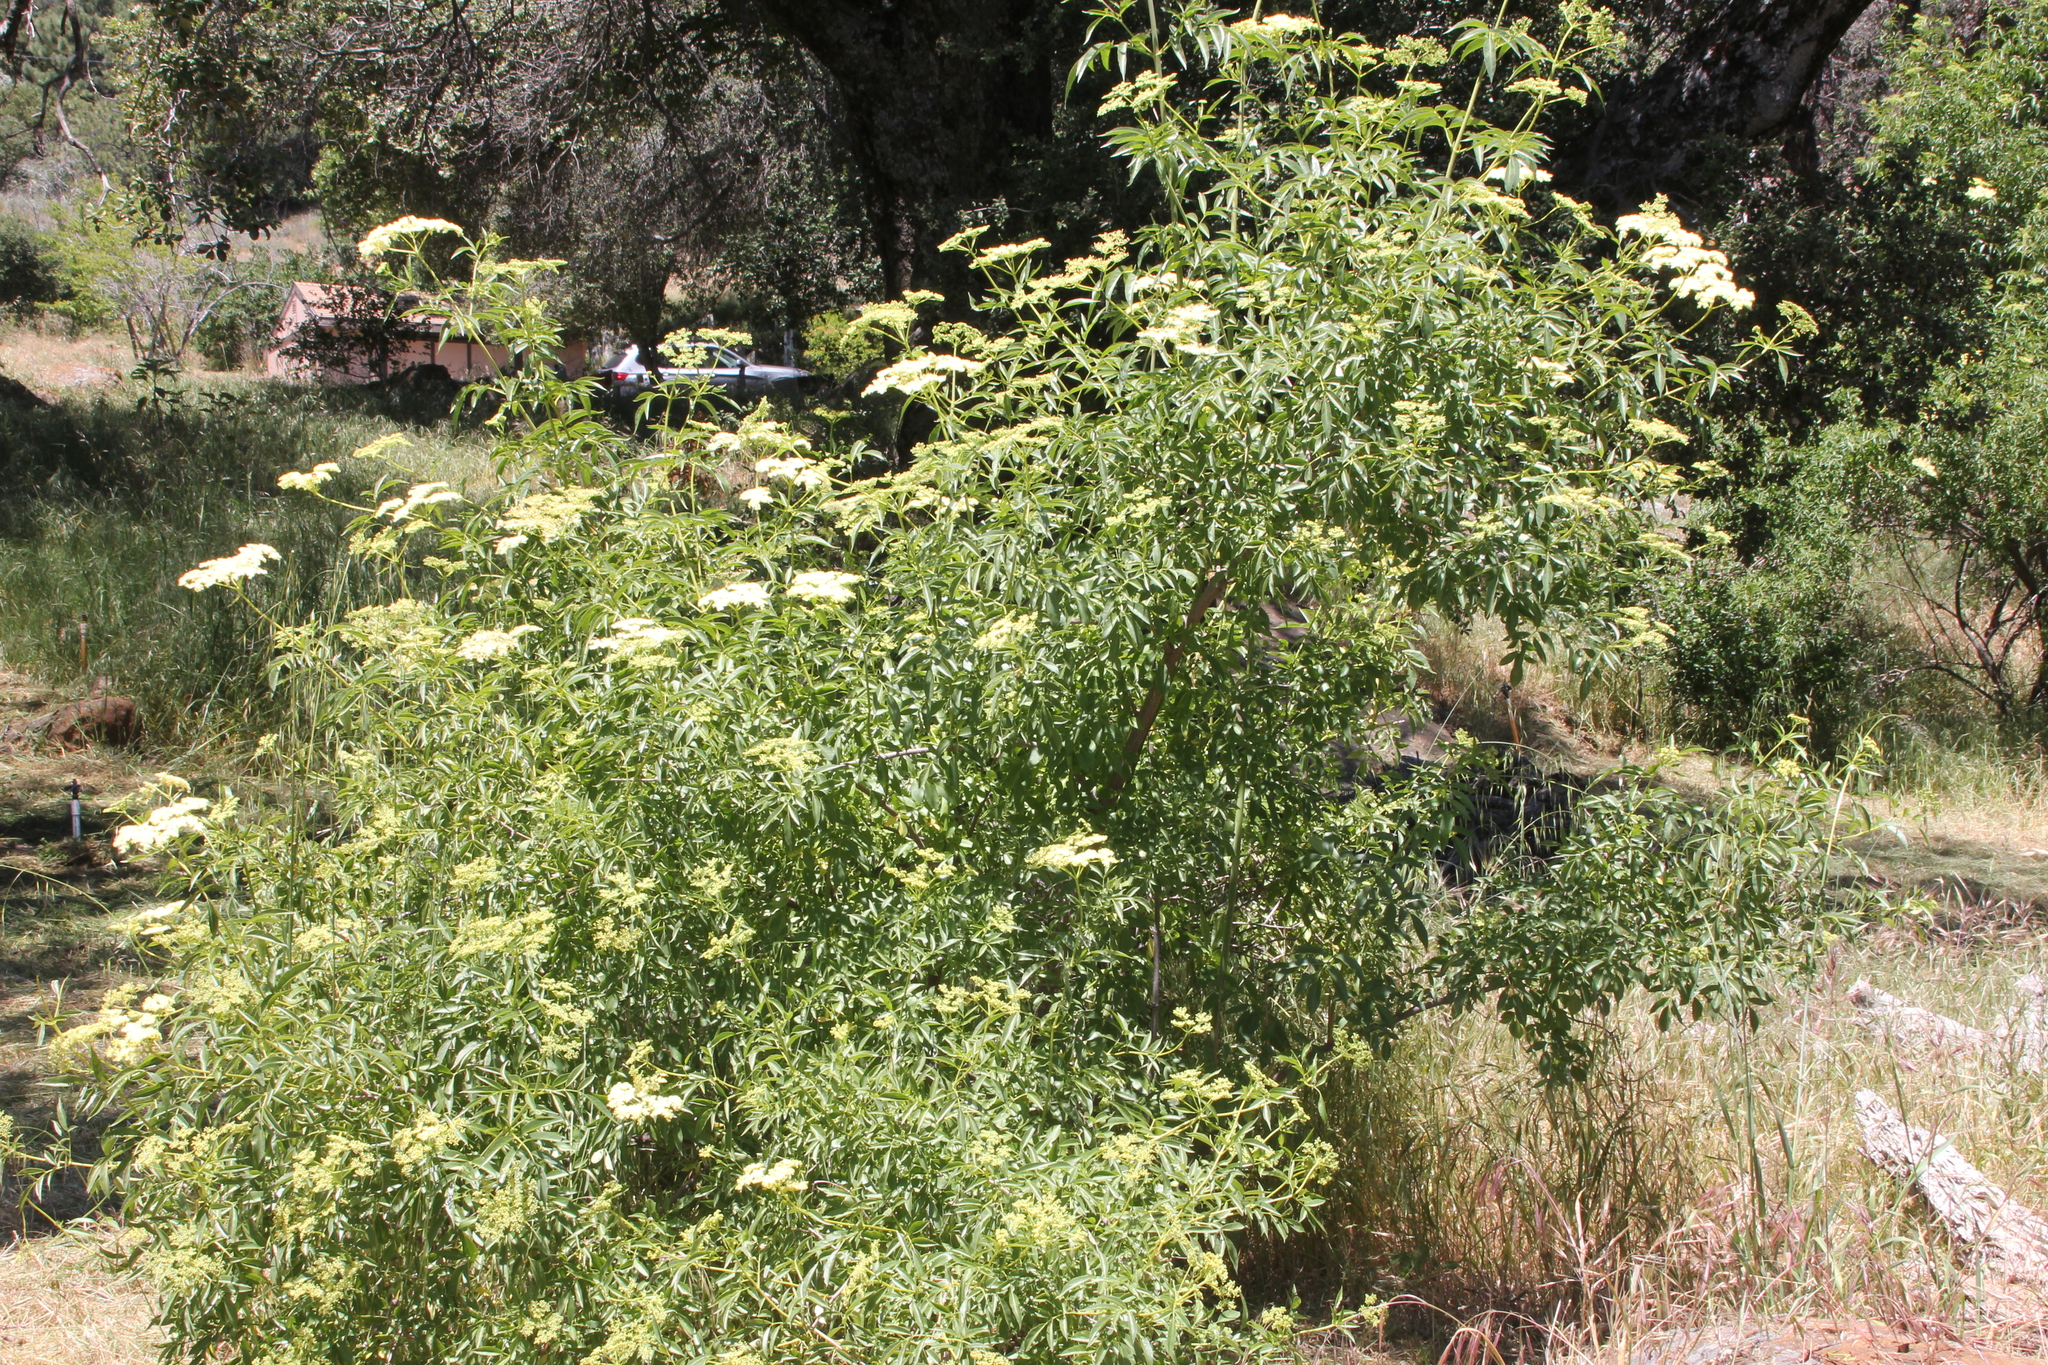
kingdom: Plantae
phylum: Tracheophyta
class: Magnoliopsida
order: Dipsacales
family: Viburnaceae
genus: Sambucus
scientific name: Sambucus cerulea
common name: Blue elder
